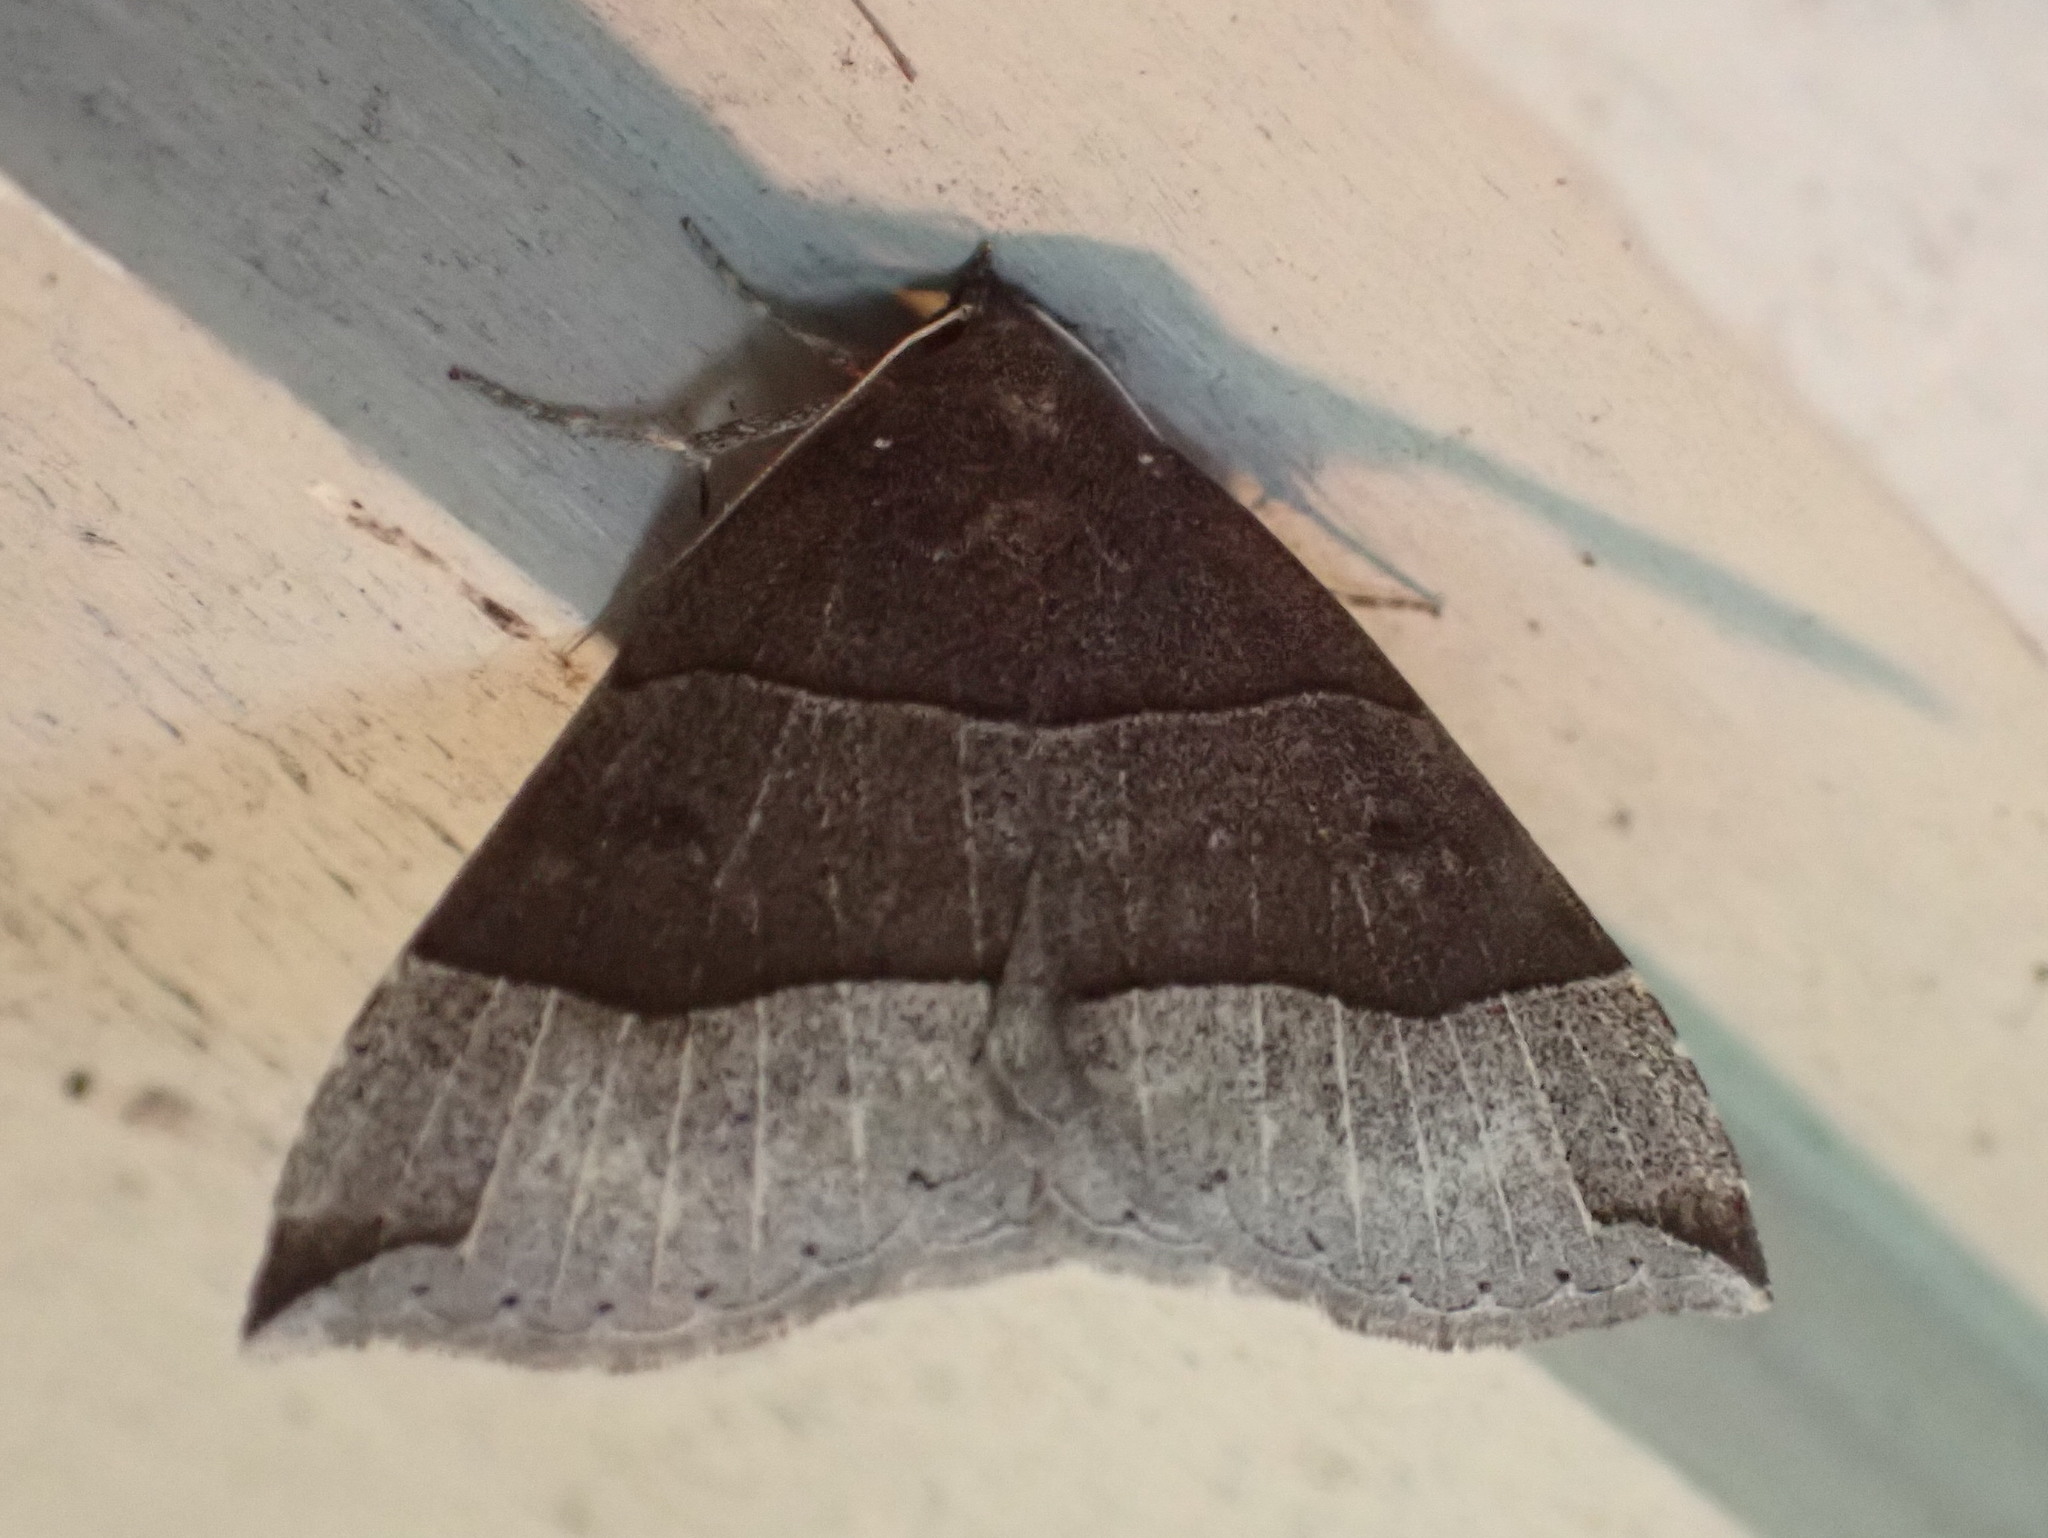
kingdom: Animalia
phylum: Arthropoda
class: Insecta
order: Lepidoptera
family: Erebidae
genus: Parallelia
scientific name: Parallelia bistriaris
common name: Maple looper moth
